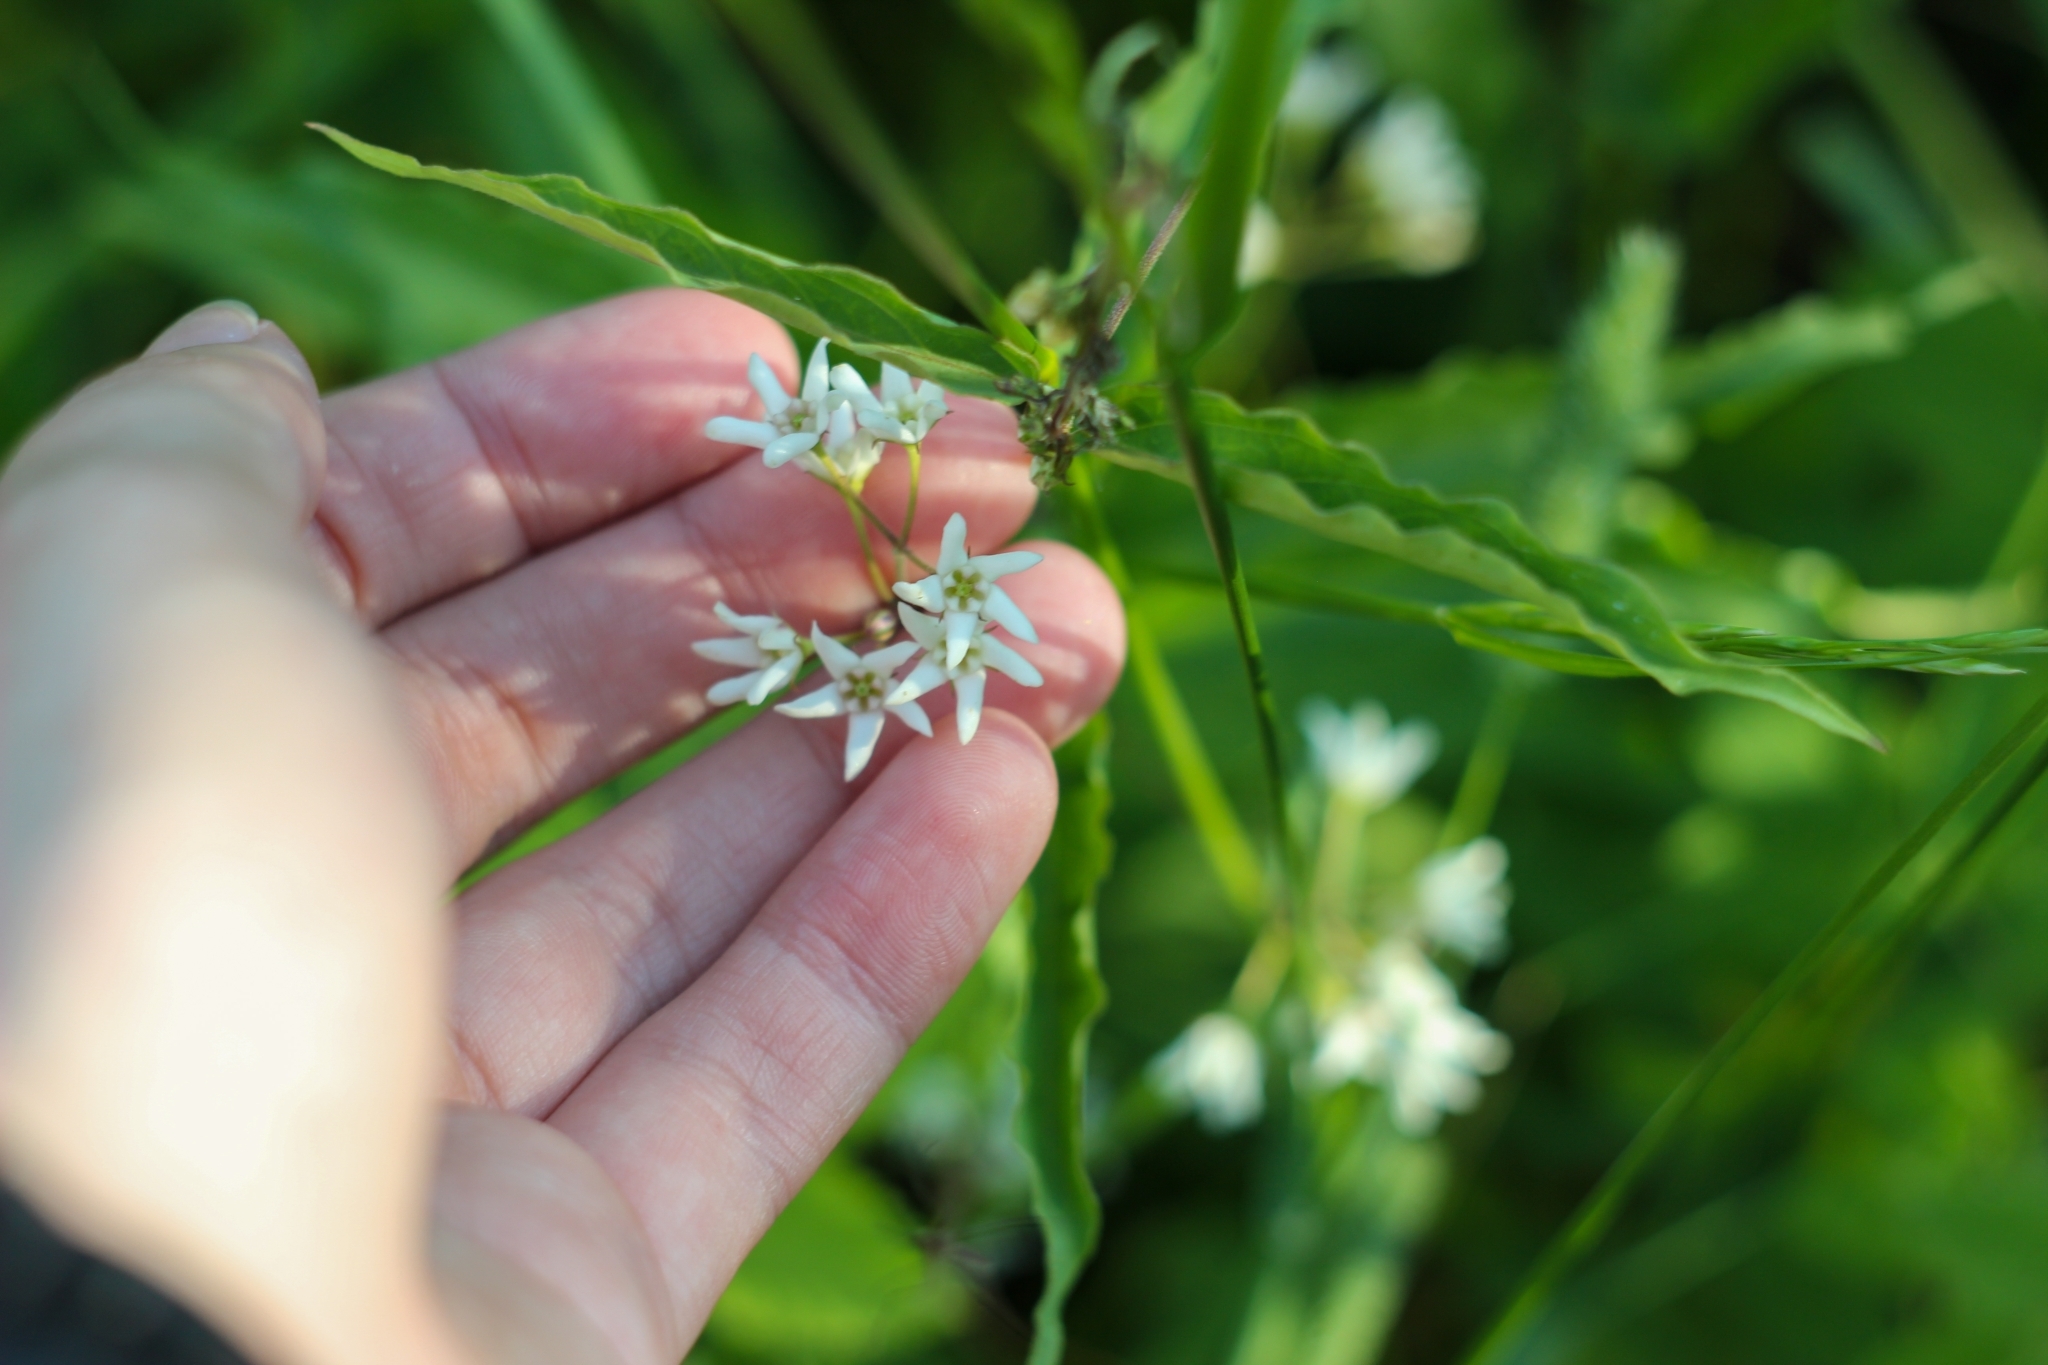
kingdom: Plantae
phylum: Tracheophyta
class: Magnoliopsida
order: Gentianales
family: Apocynaceae
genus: Vincetoxicum
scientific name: Vincetoxicum hirundinaria
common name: White swallowwort
